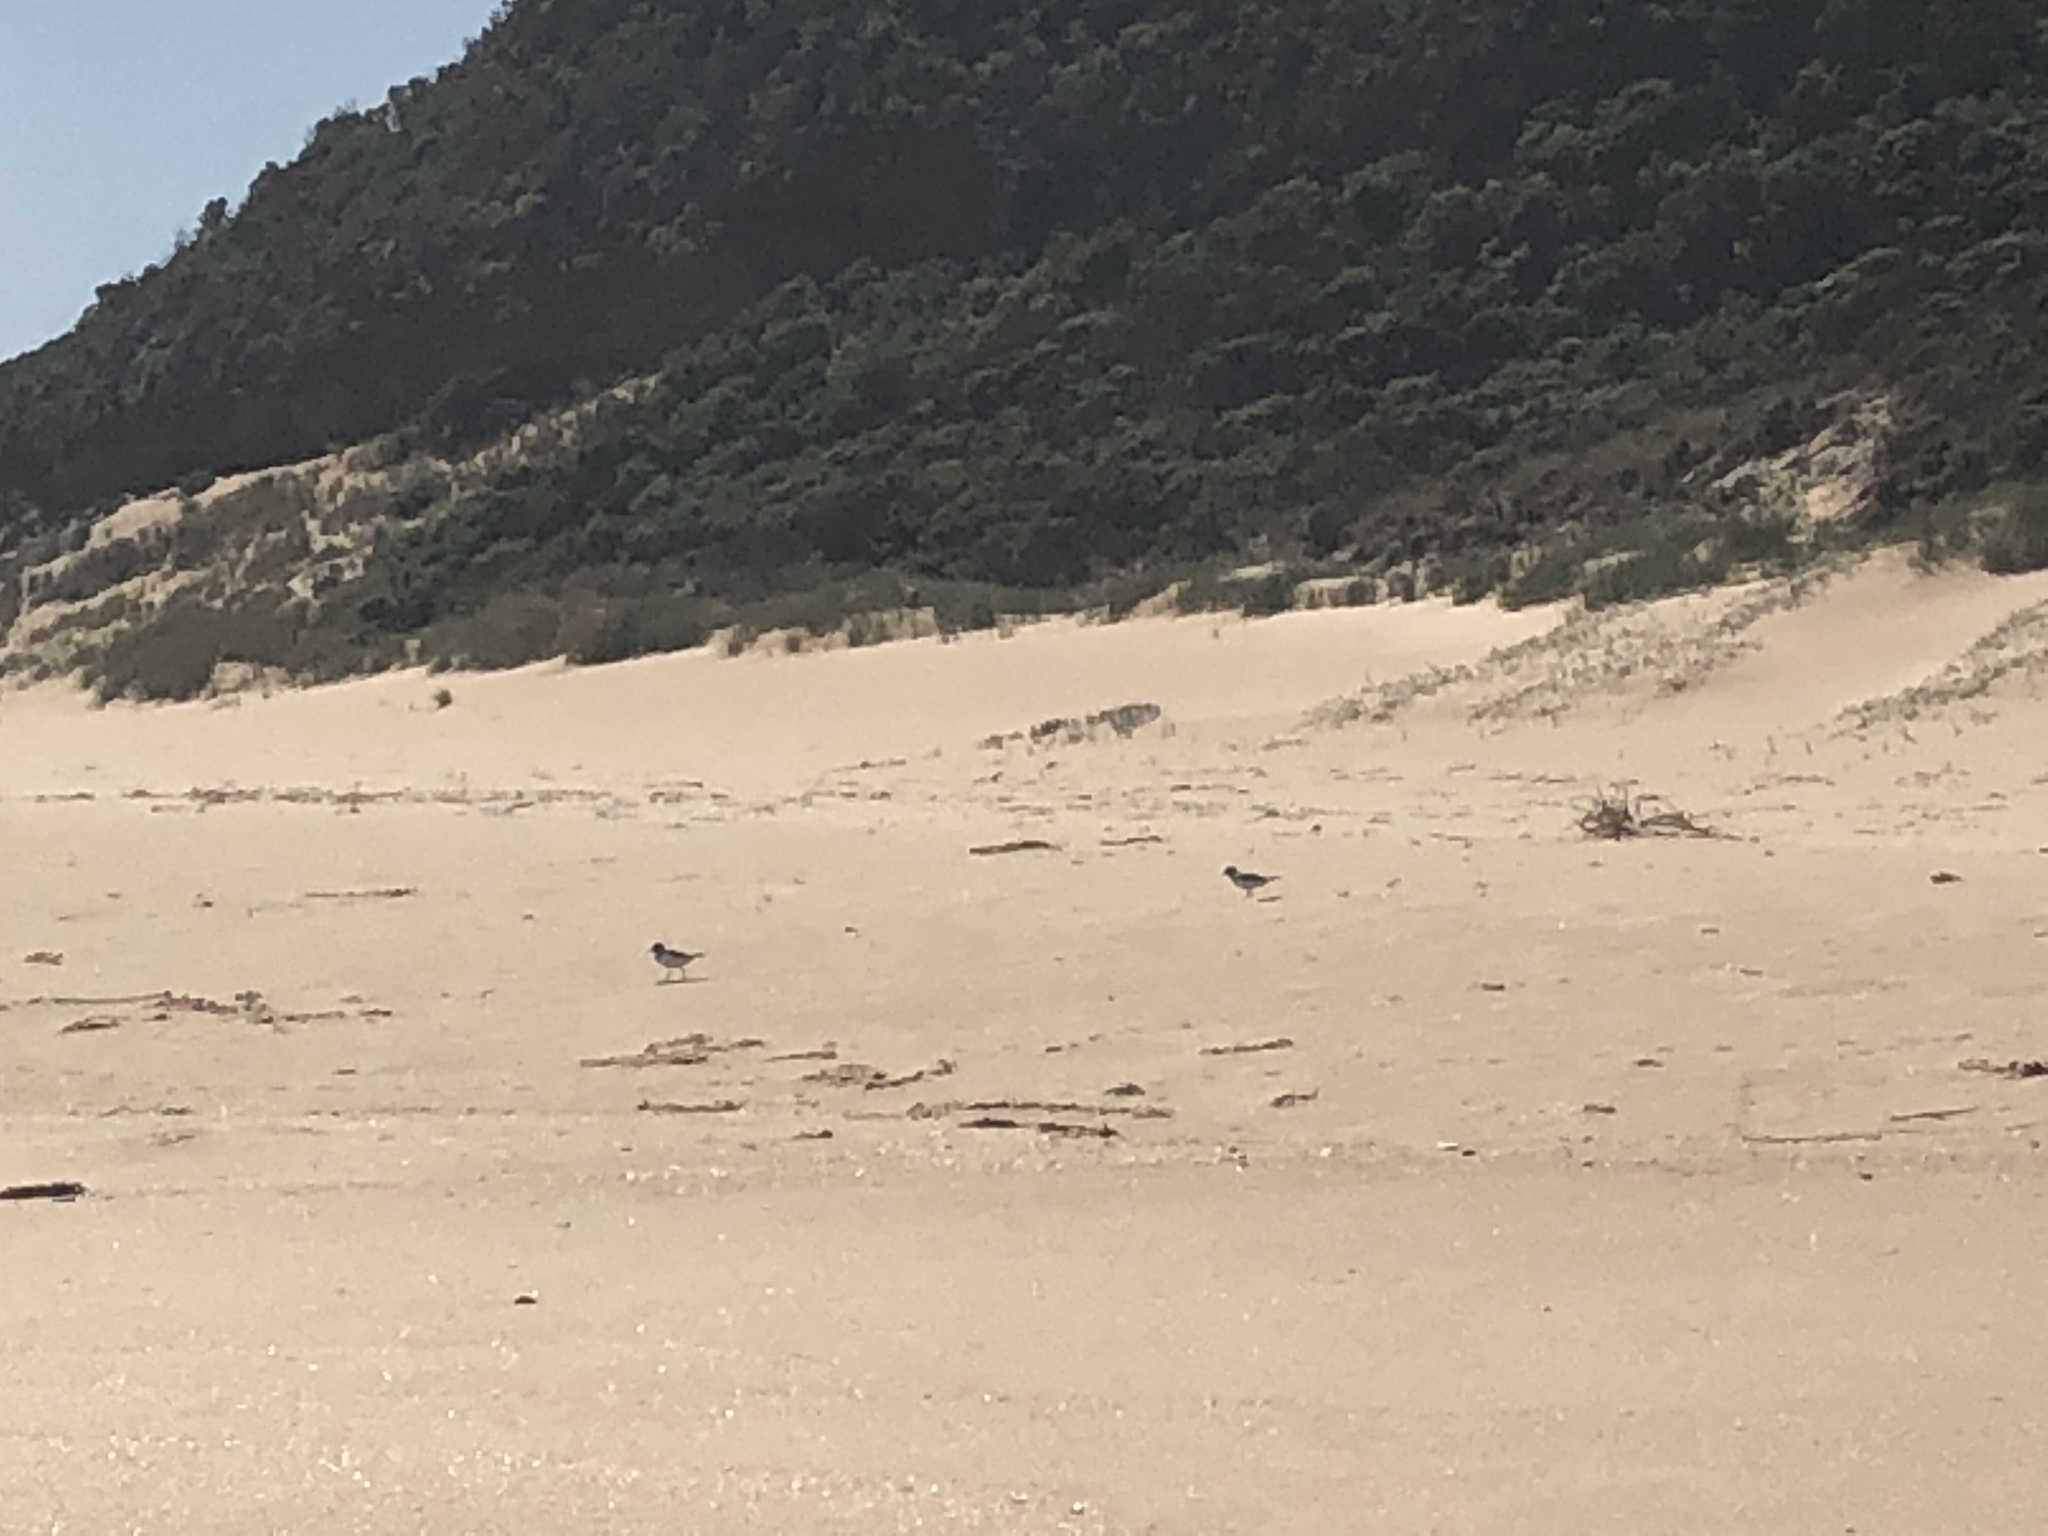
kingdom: Animalia
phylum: Chordata
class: Aves
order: Charadriiformes
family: Charadriidae
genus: Thinornis
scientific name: Thinornis cucullatus
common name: Hooded dotterel
